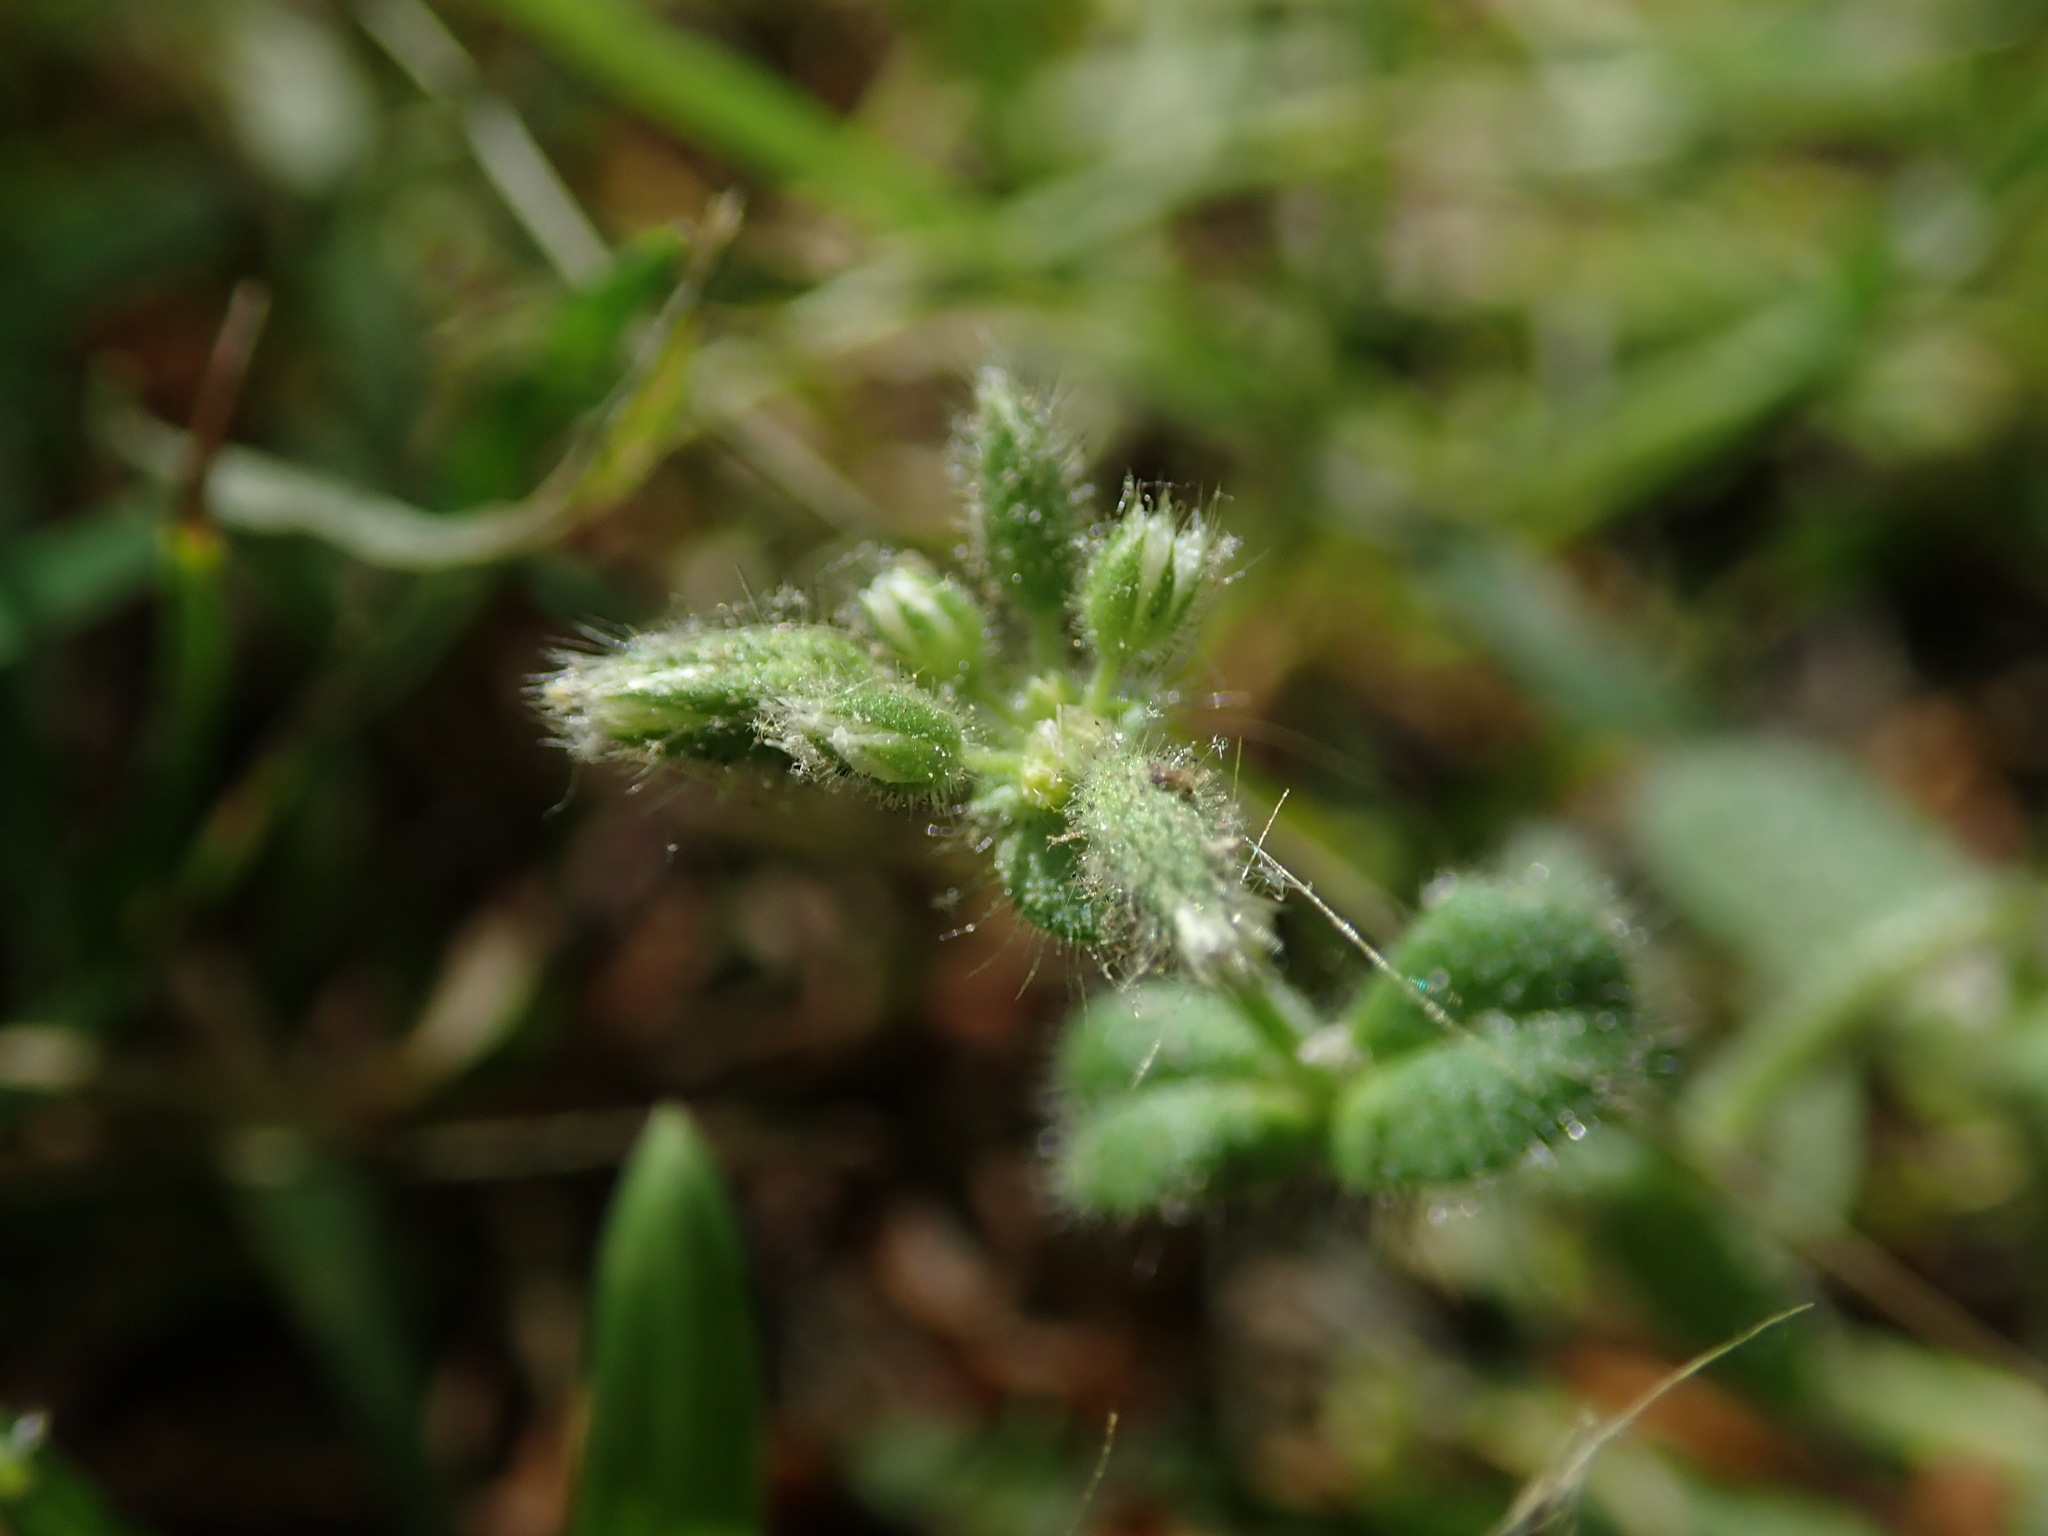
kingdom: Plantae
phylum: Tracheophyta
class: Magnoliopsida
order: Caryophyllales
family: Caryophyllaceae
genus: Cerastium
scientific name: Cerastium glomeratum
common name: Sticky chickweed
